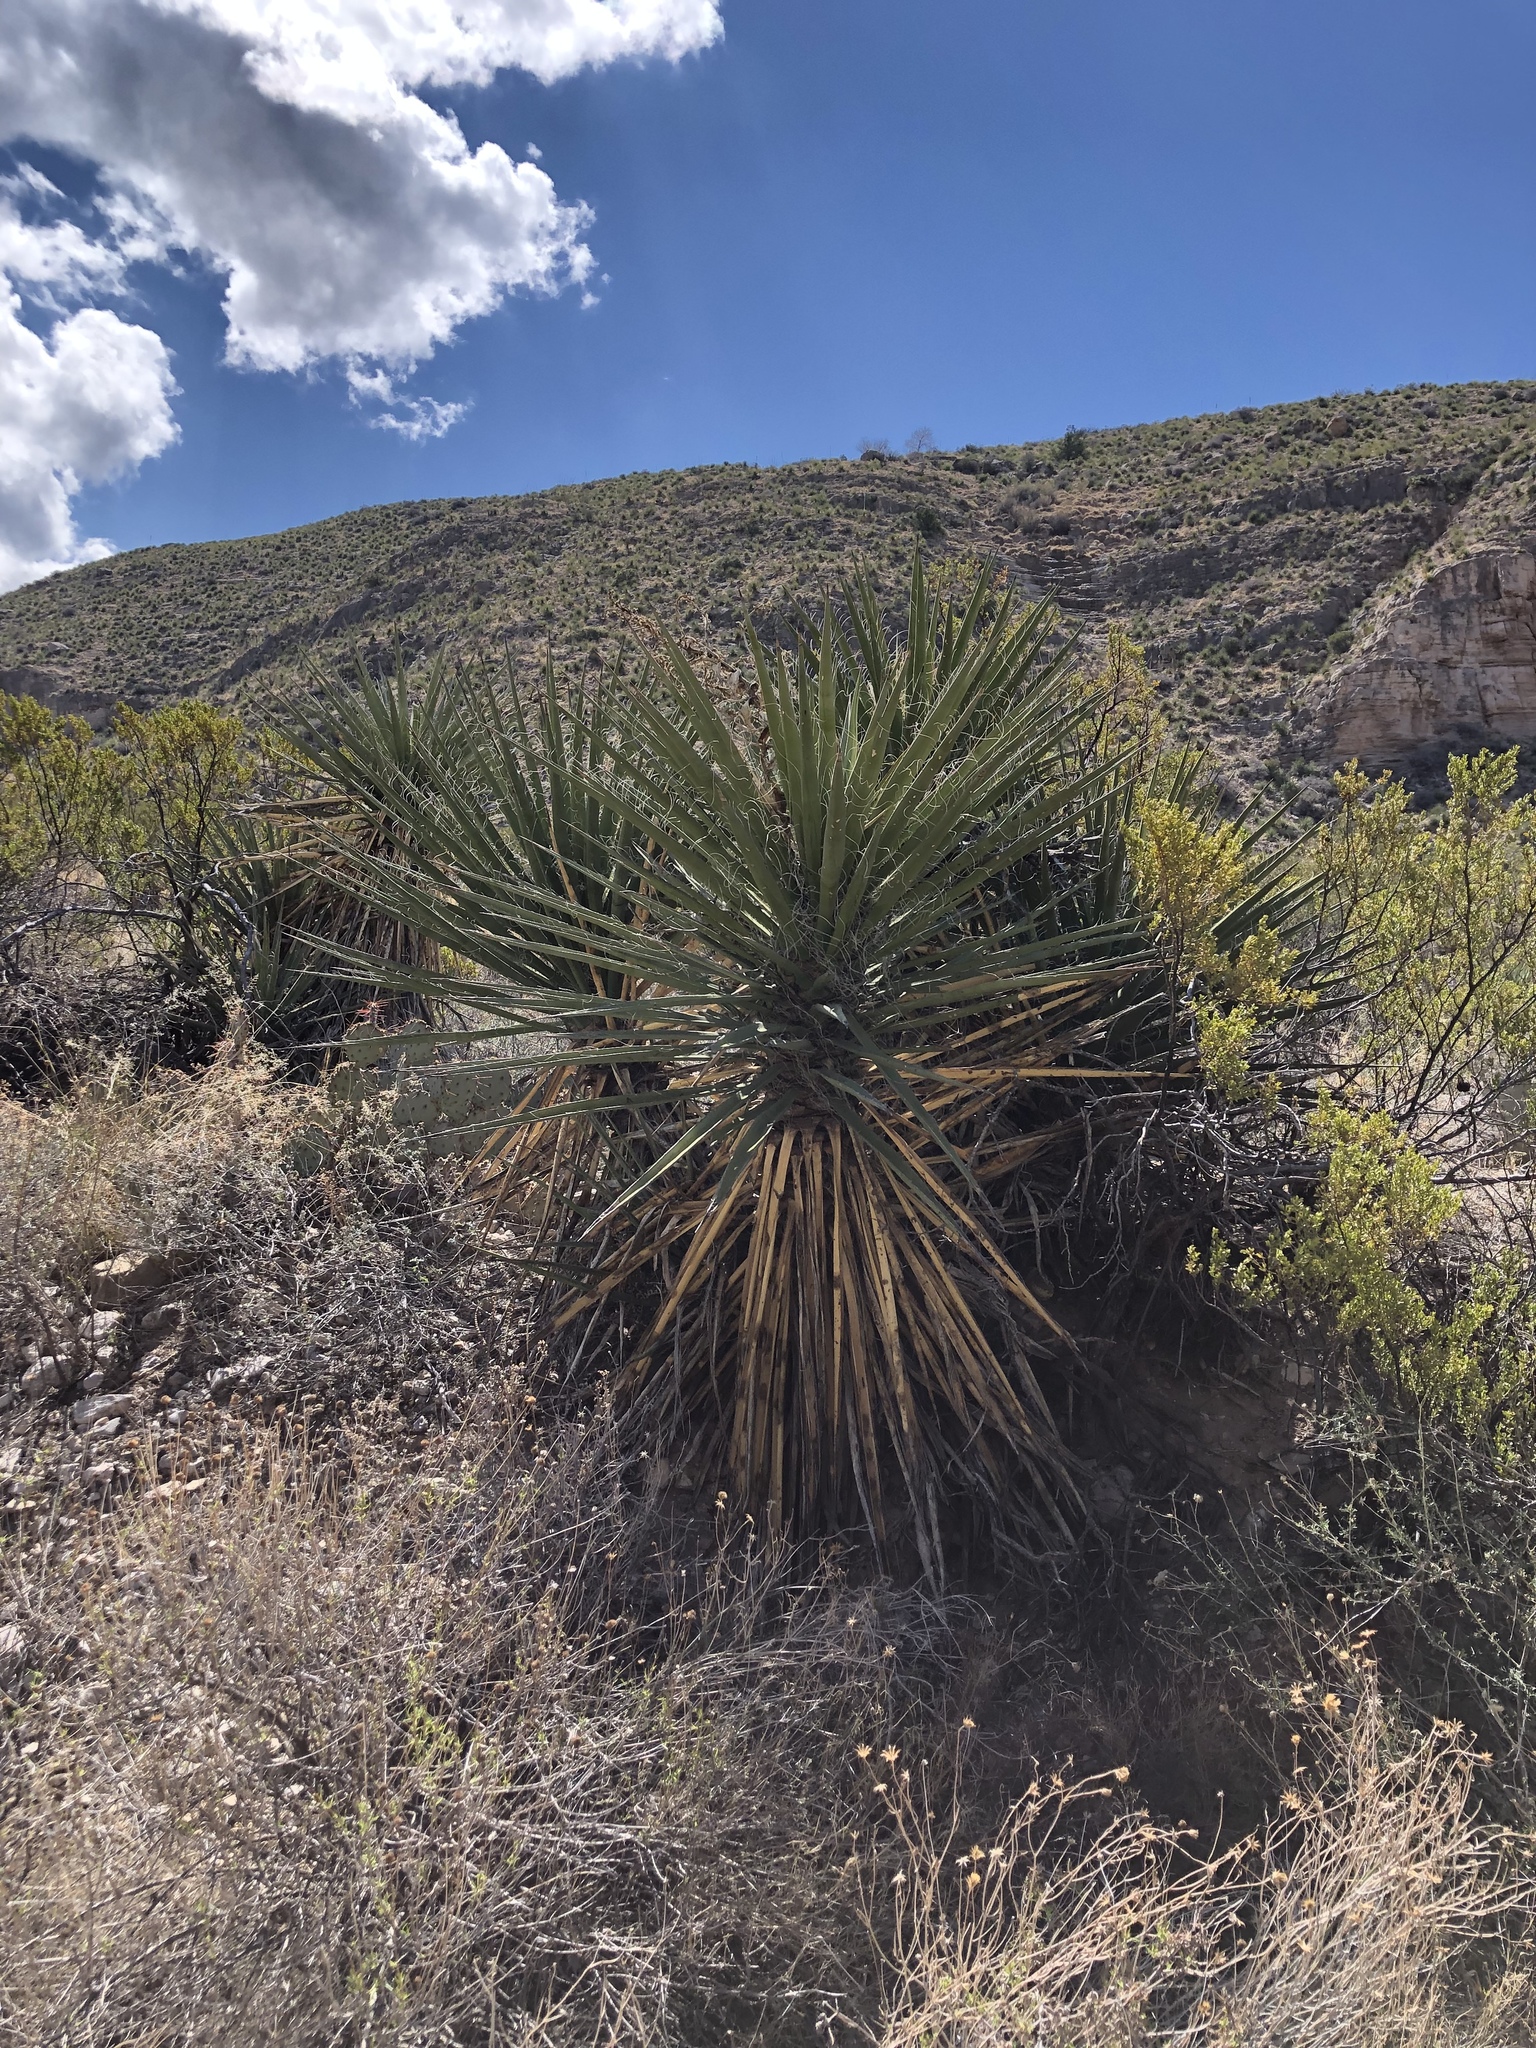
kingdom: Plantae
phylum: Tracheophyta
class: Liliopsida
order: Asparagales
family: Asparagaceae
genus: Yucca
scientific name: Yucca treculiana
